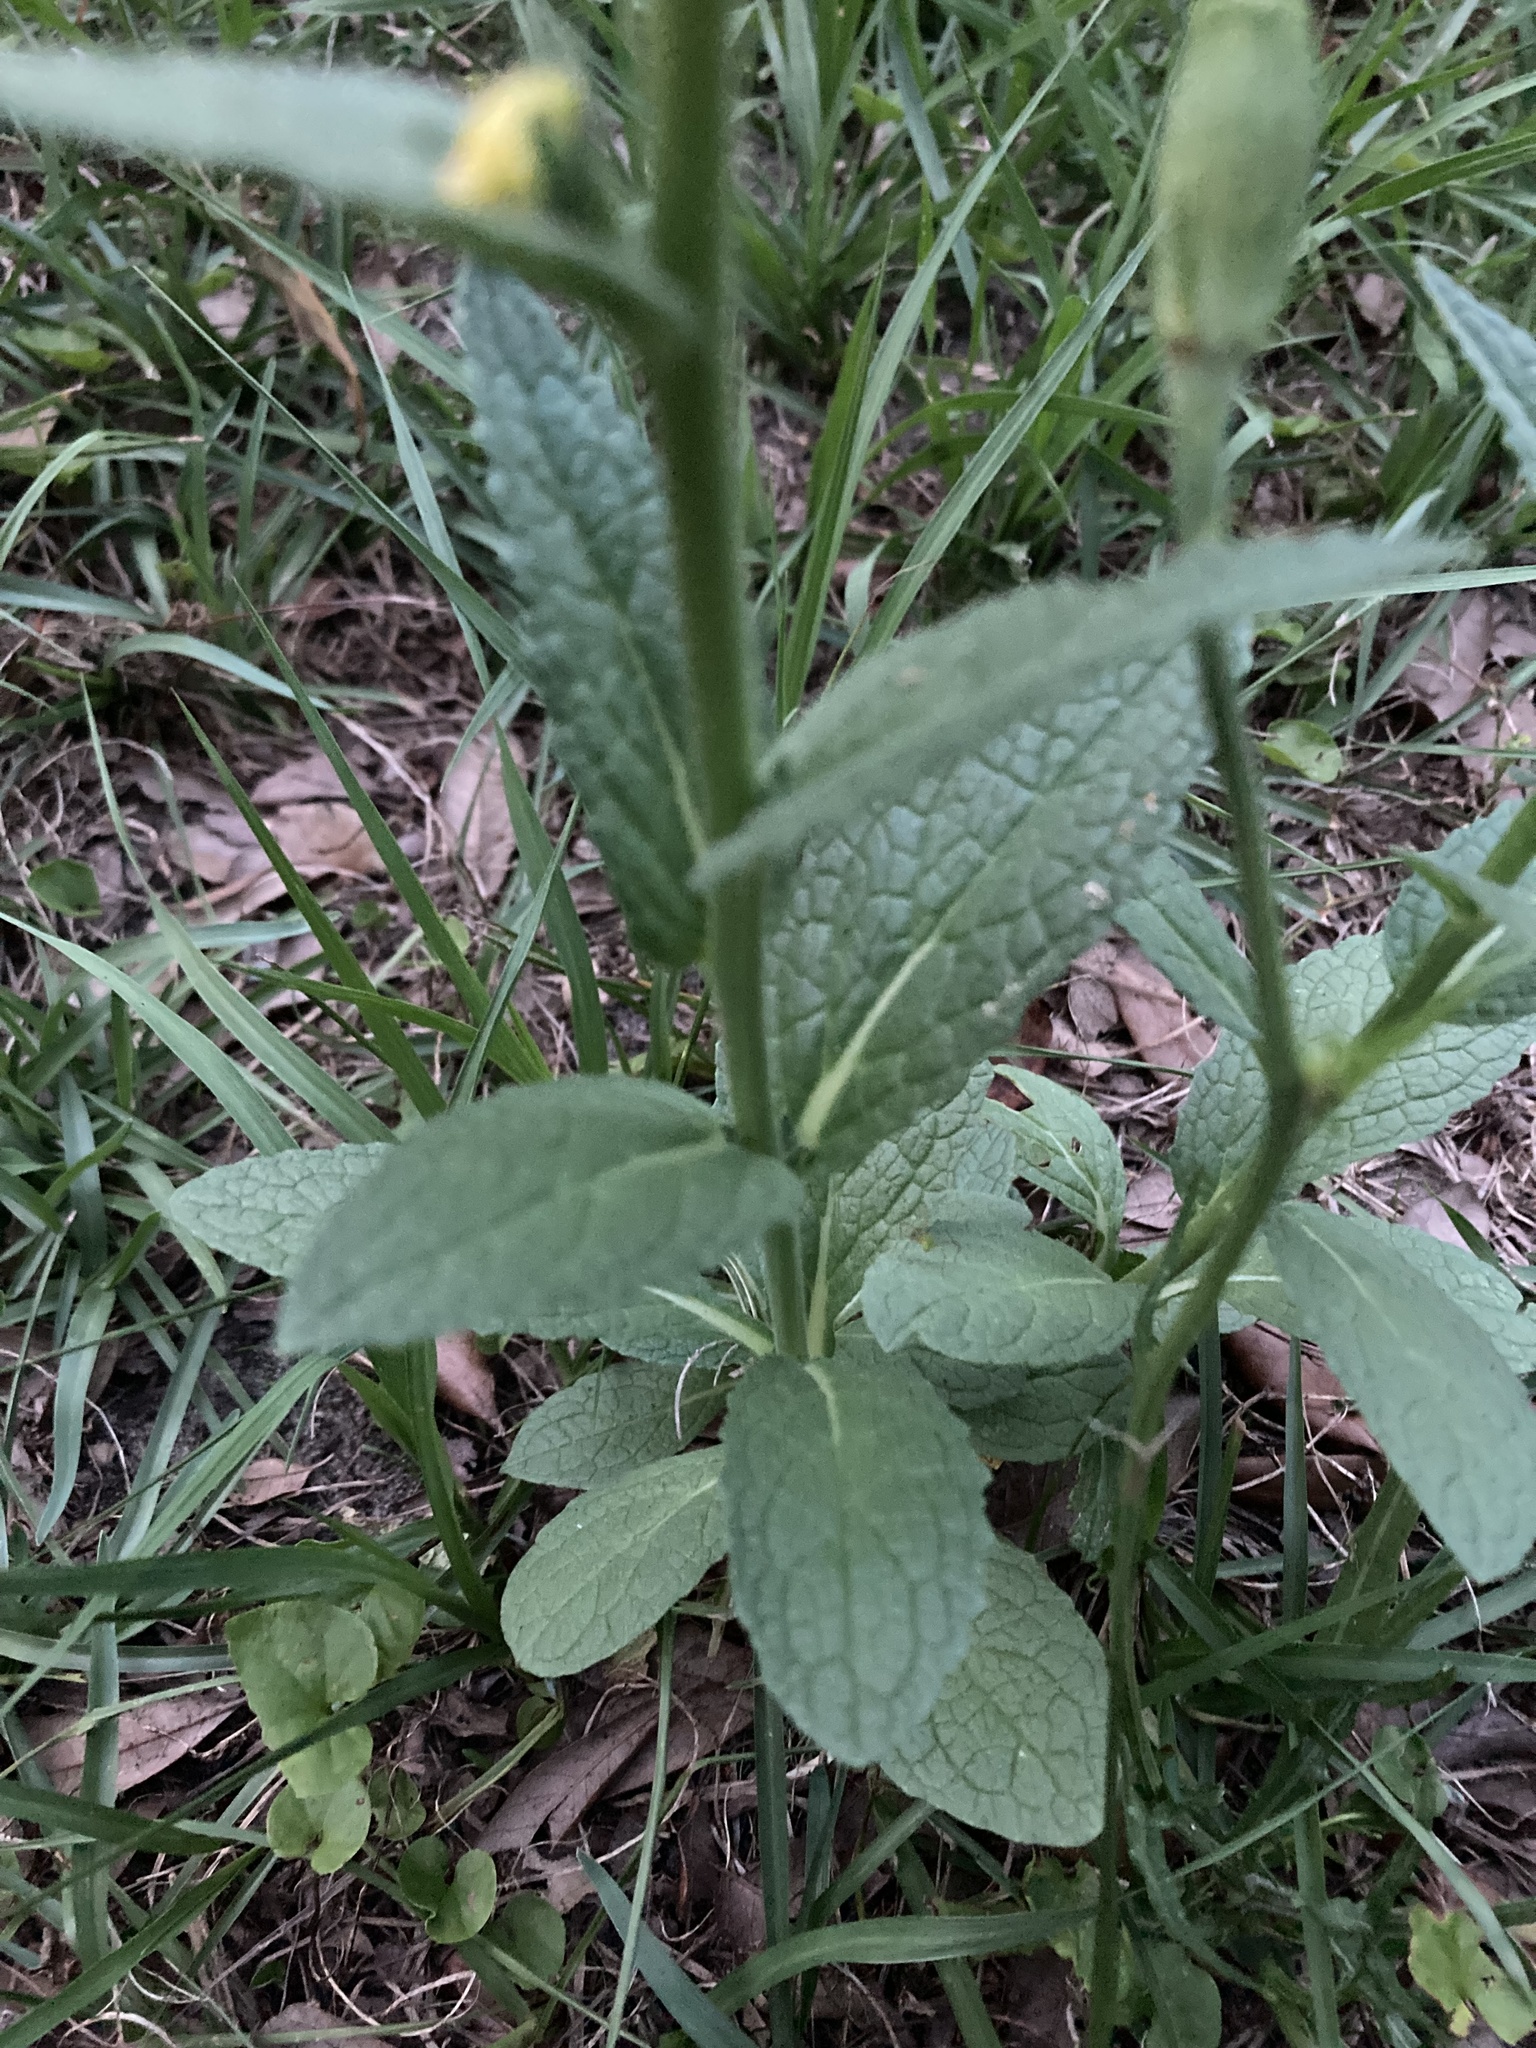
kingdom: Plantae
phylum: Tracheophyta
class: Magnoliopsida
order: Lamiales
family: Scrophulariaceae
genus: Verbascum
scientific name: Verbascum virgatum
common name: Twiggy mullein
